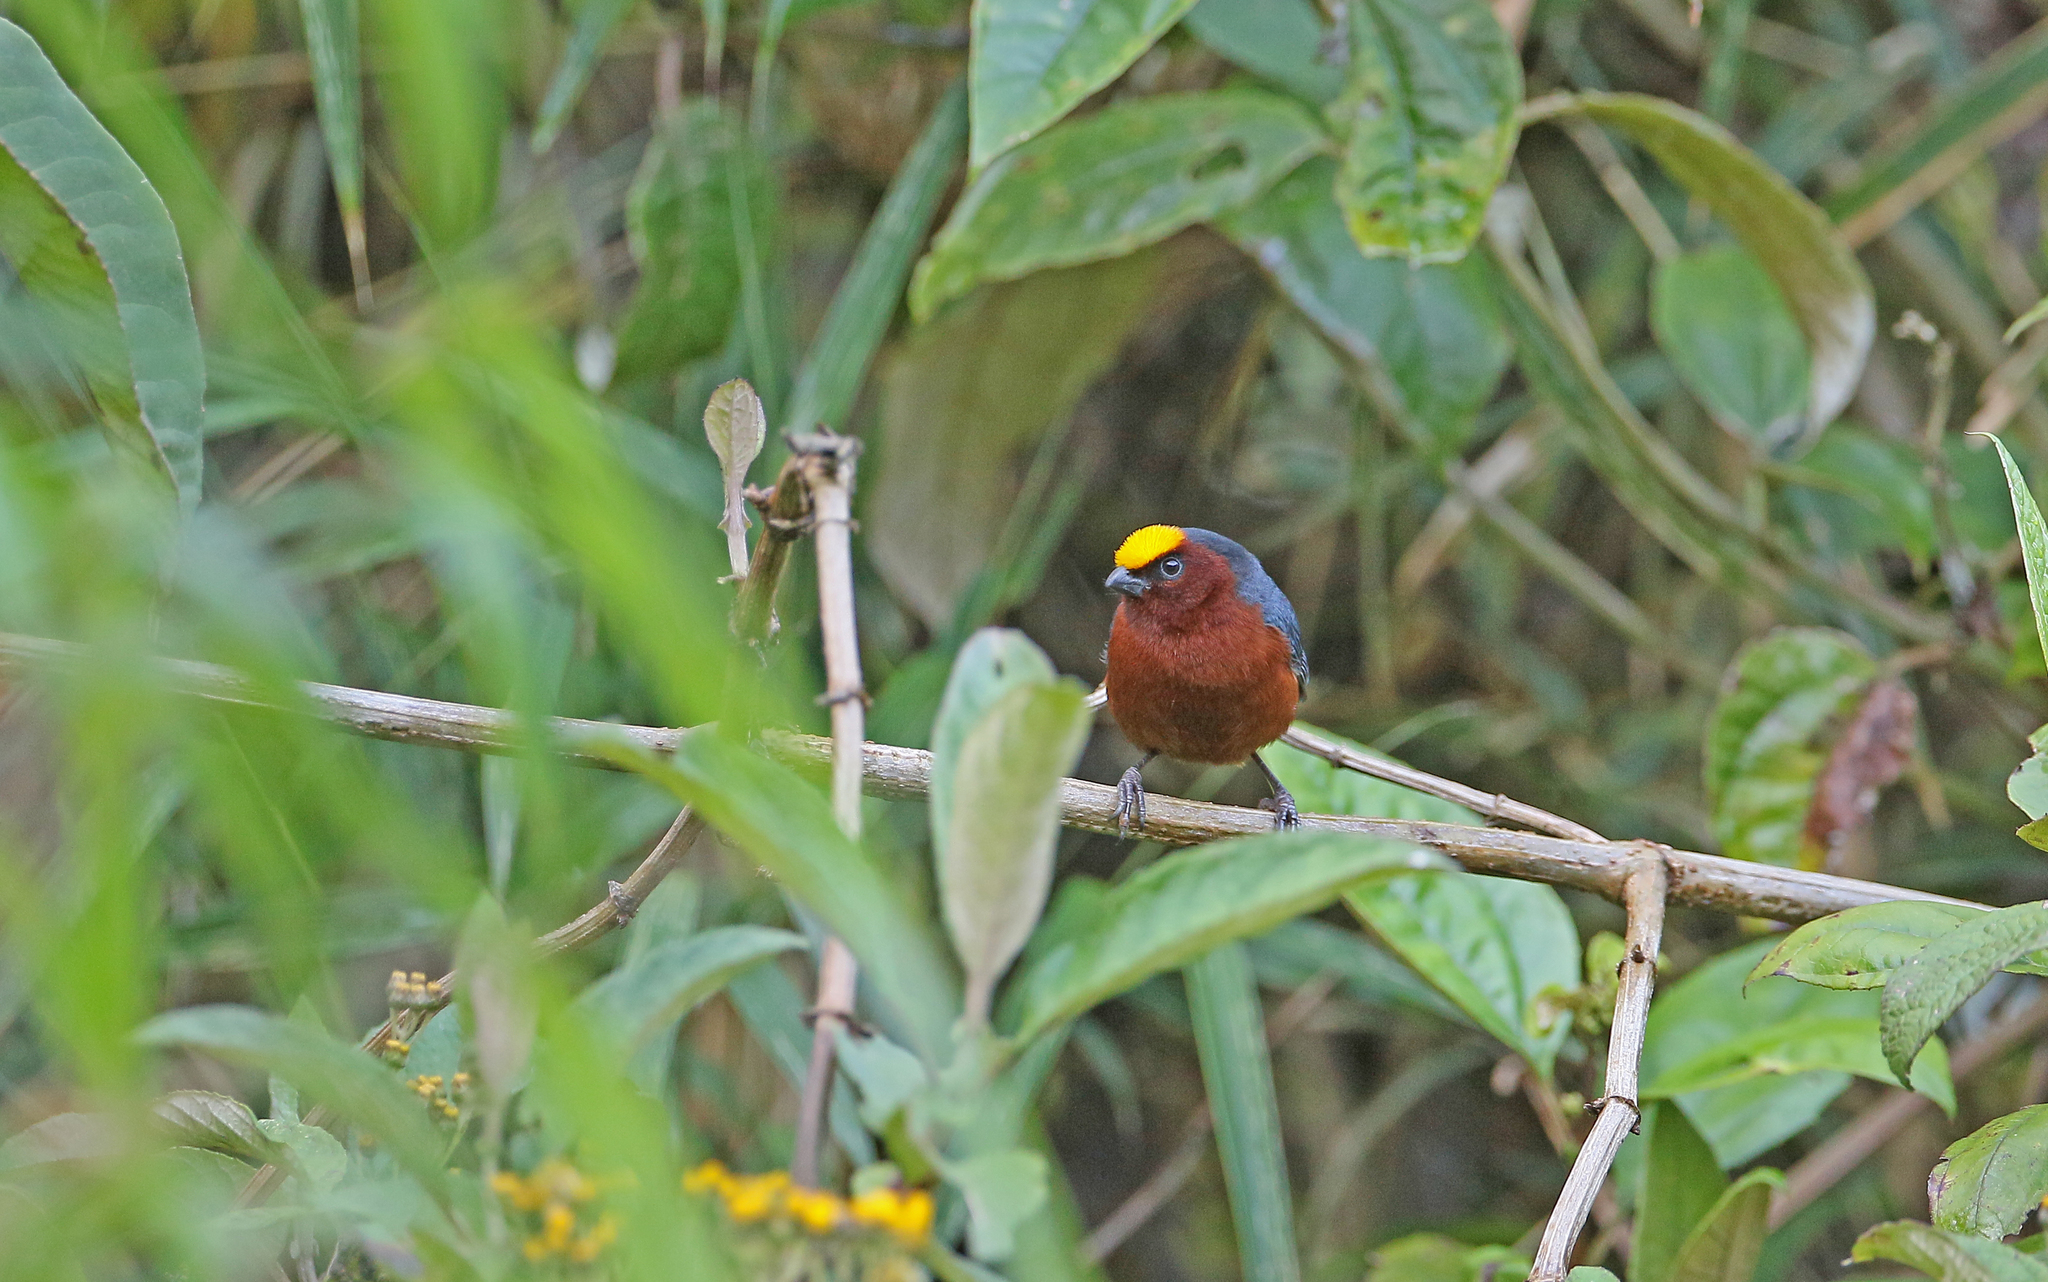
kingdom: Animalia
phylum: Chordata
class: Aves
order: Passeriformes
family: Thraupidae
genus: Catamblyrhynchus
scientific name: Catamblyrhynchus diadema
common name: Plushcap
